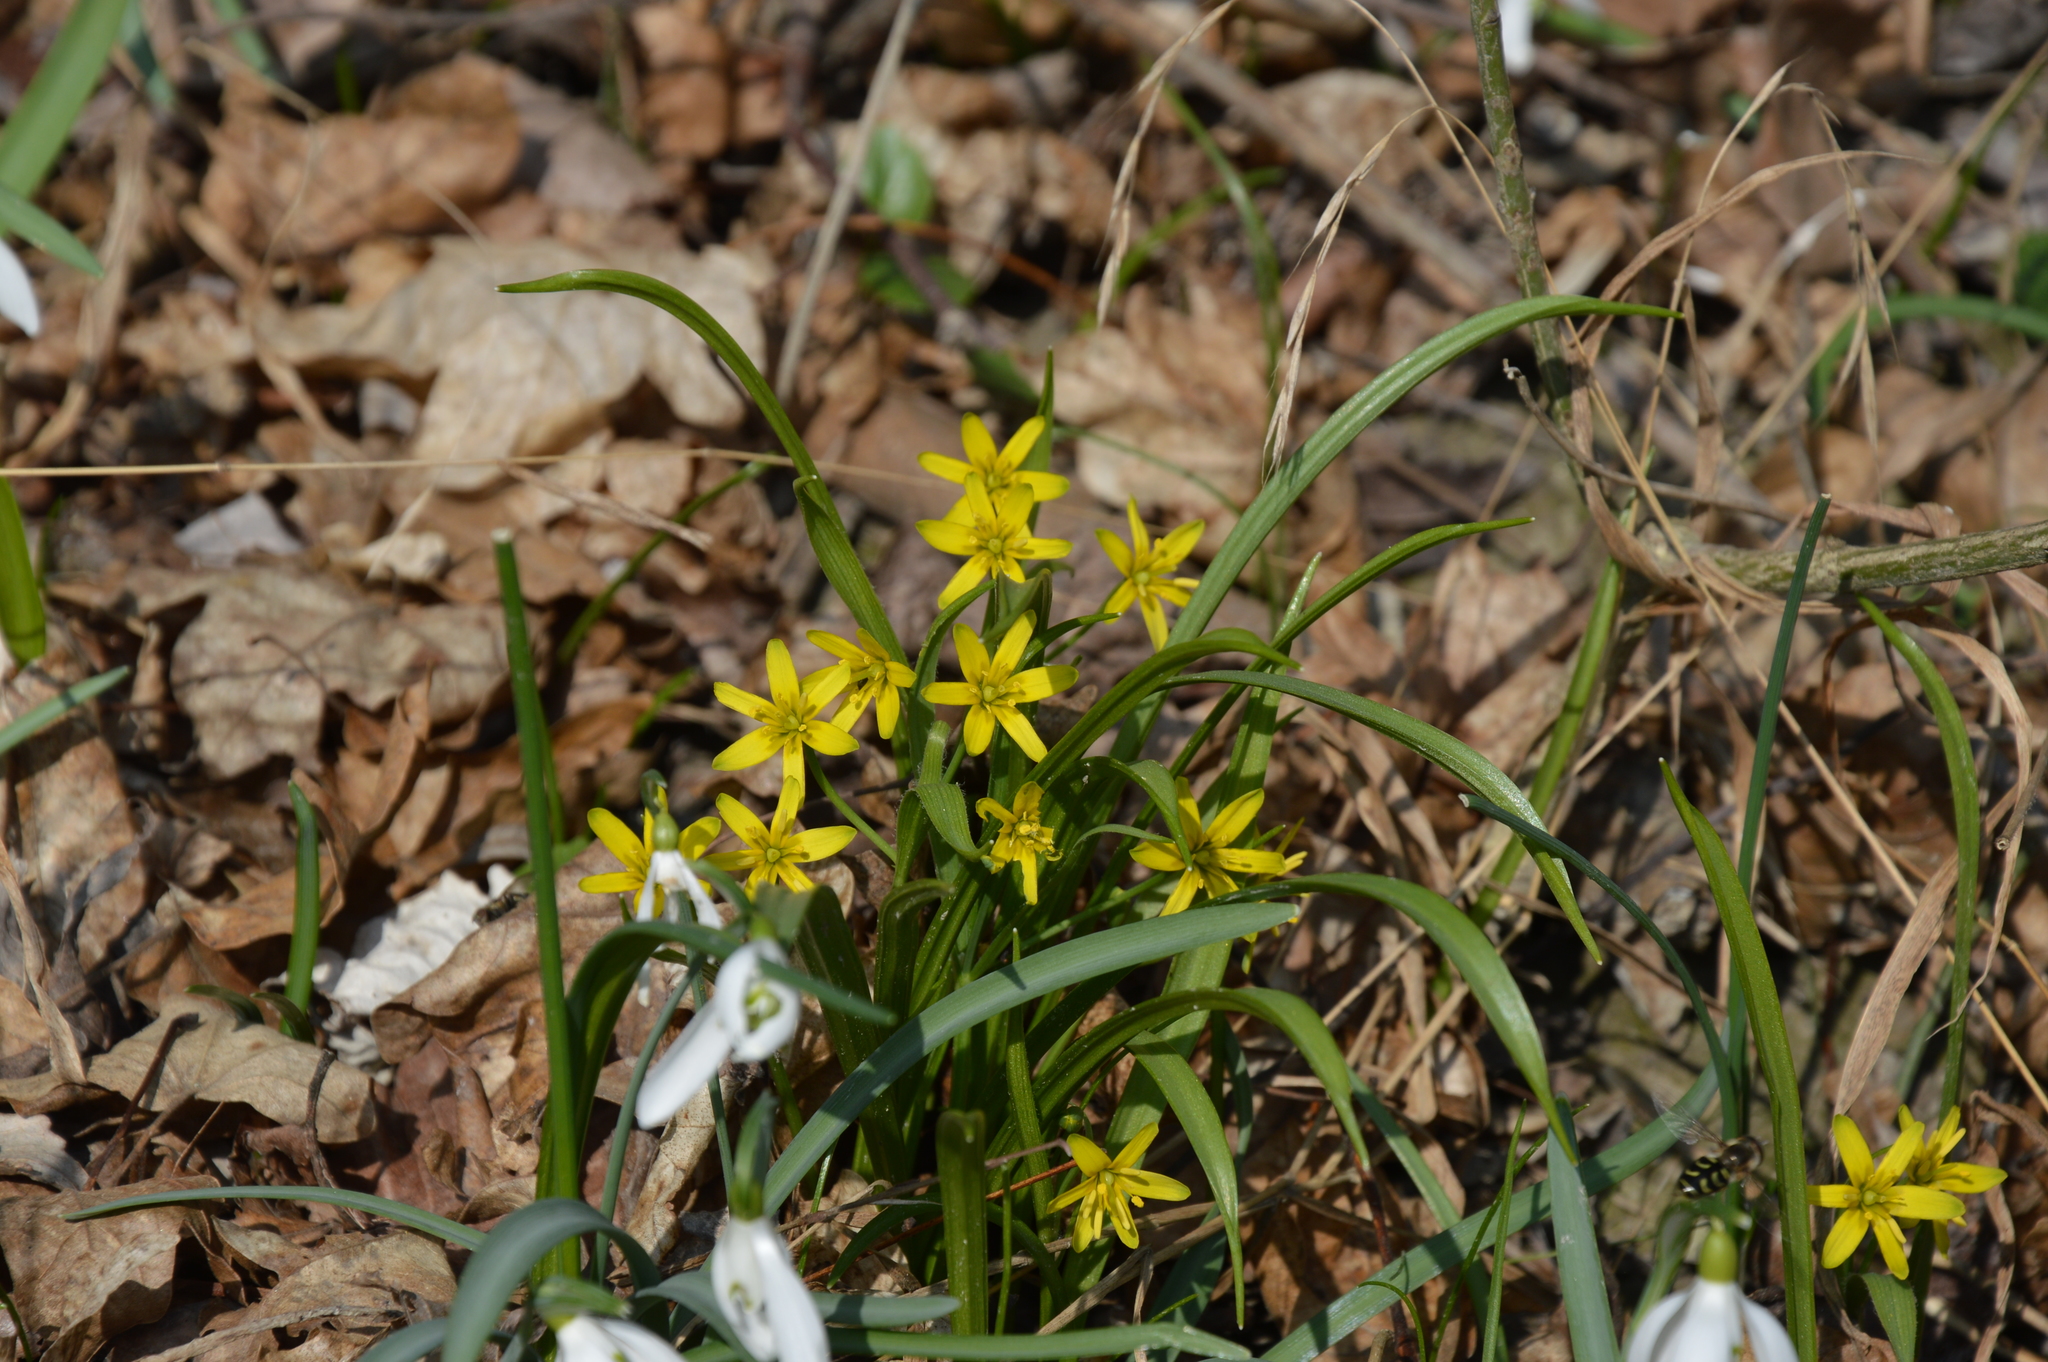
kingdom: Plantae
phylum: Tracheophyta
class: Liliopsida
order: Liliales
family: Liliaceae
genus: Gagea
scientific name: Gagea lutea
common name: Yellow star-of-bethlehem
